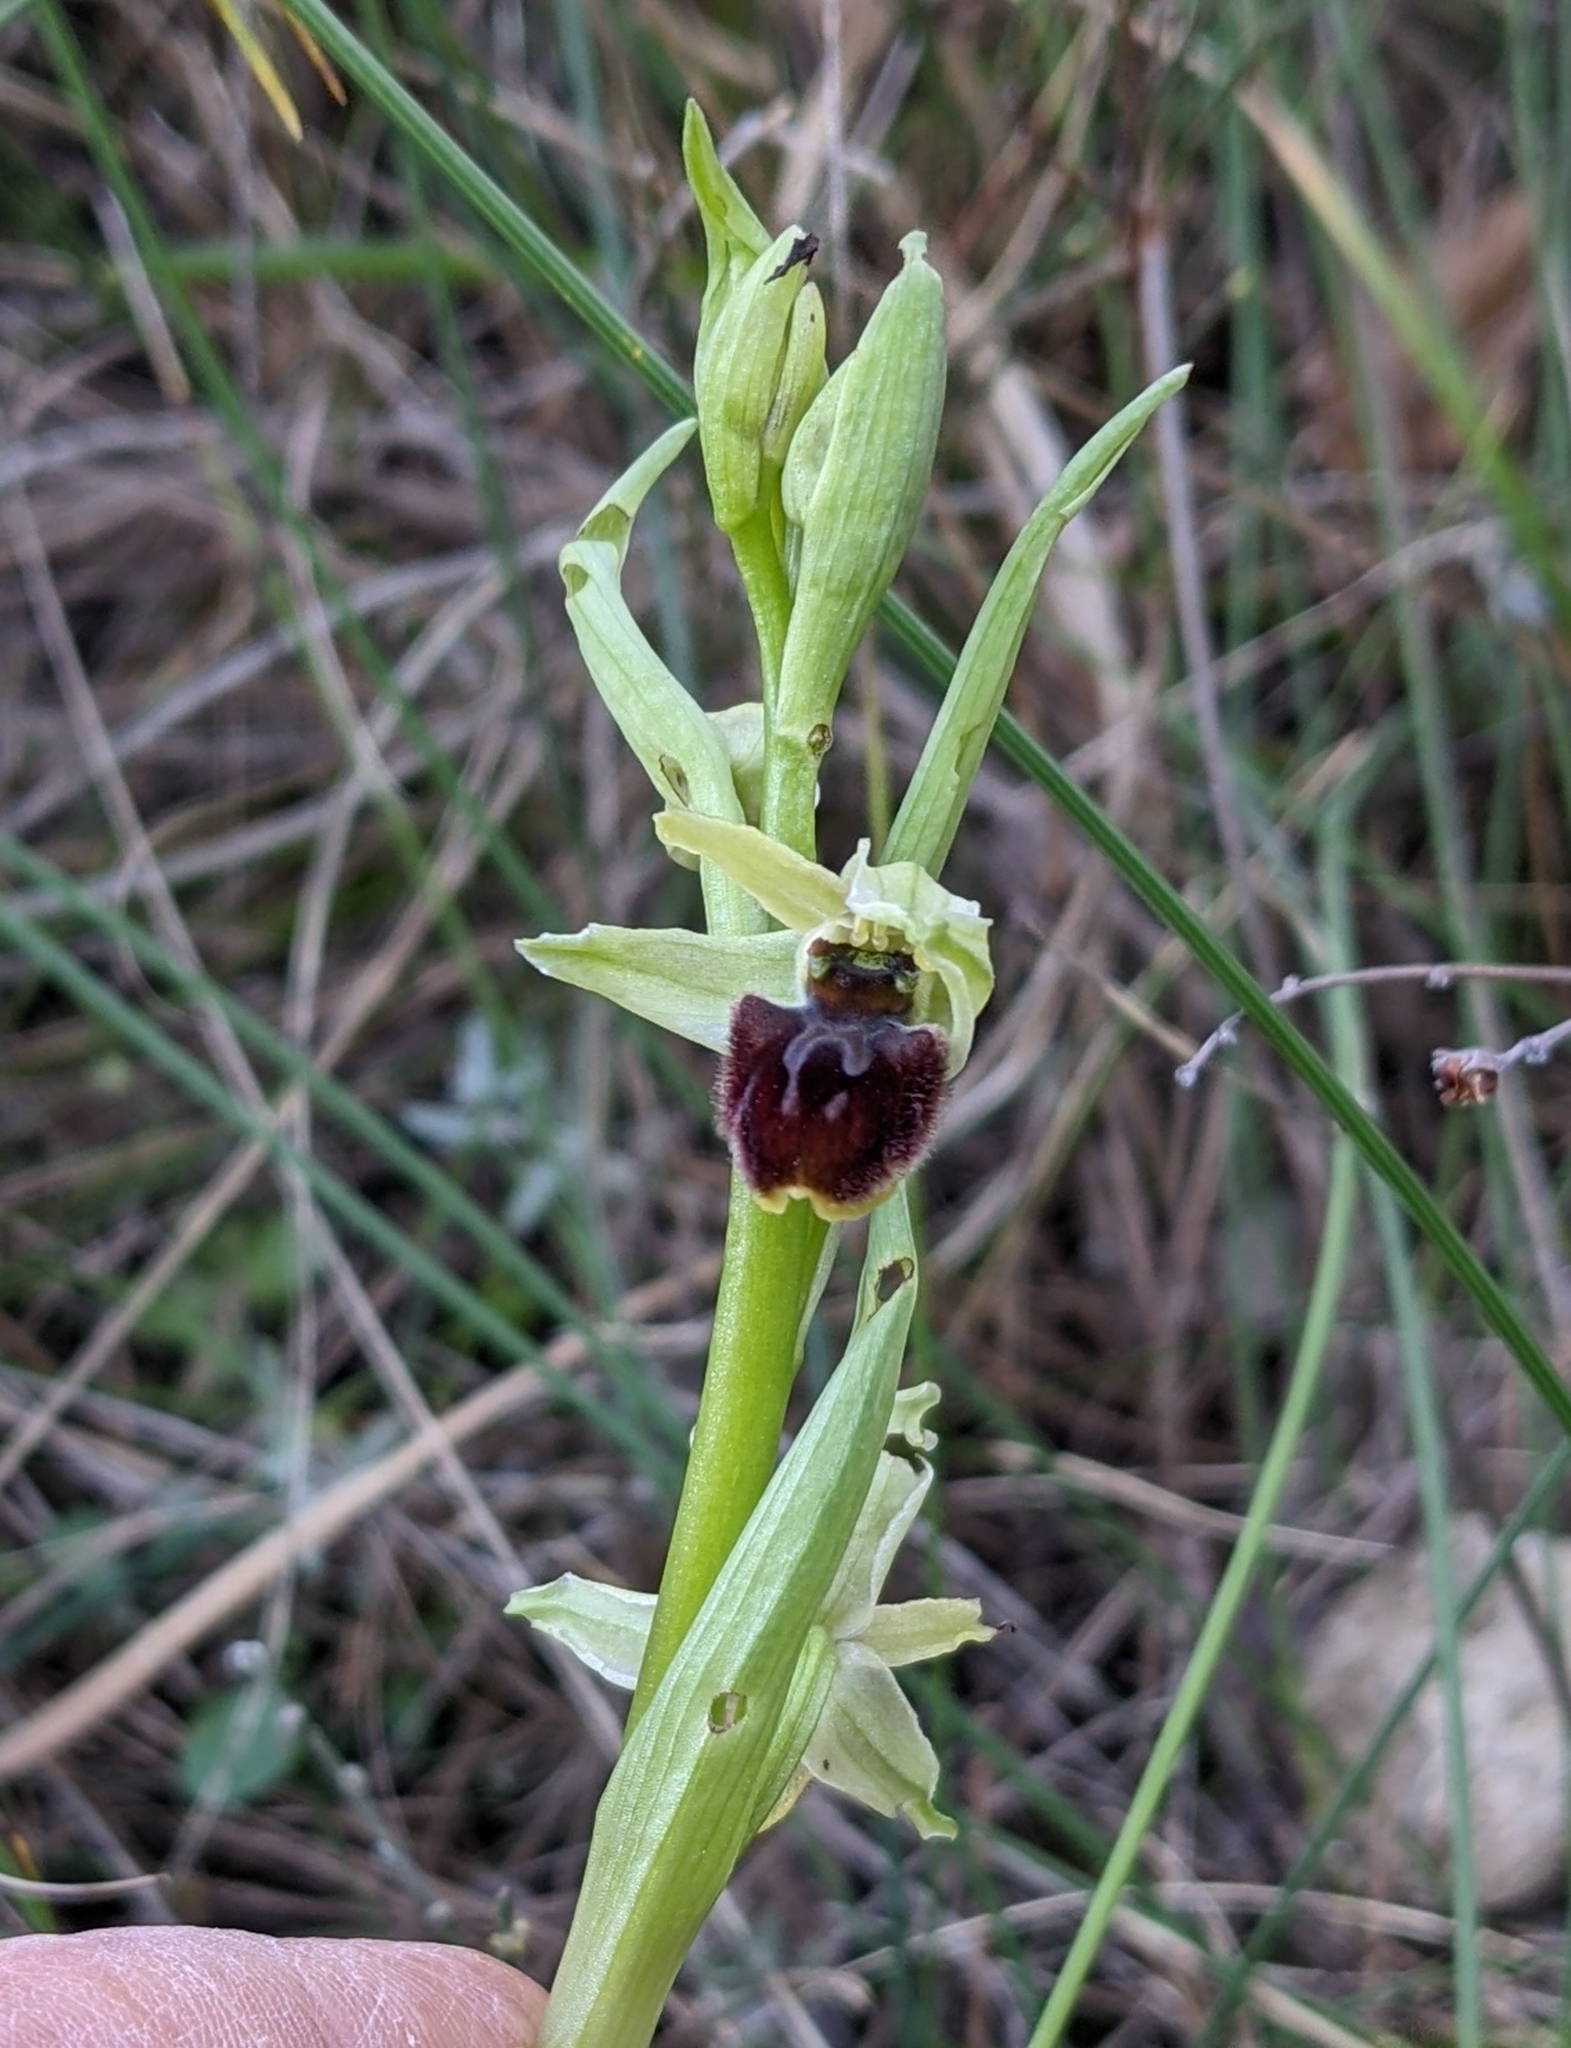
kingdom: Plantae
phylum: Tracheophyta
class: Liliopsida
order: Asparagales
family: Orchidaceae
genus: Ophrys
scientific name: Ophrys sphegodes
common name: Early spider-orchid
